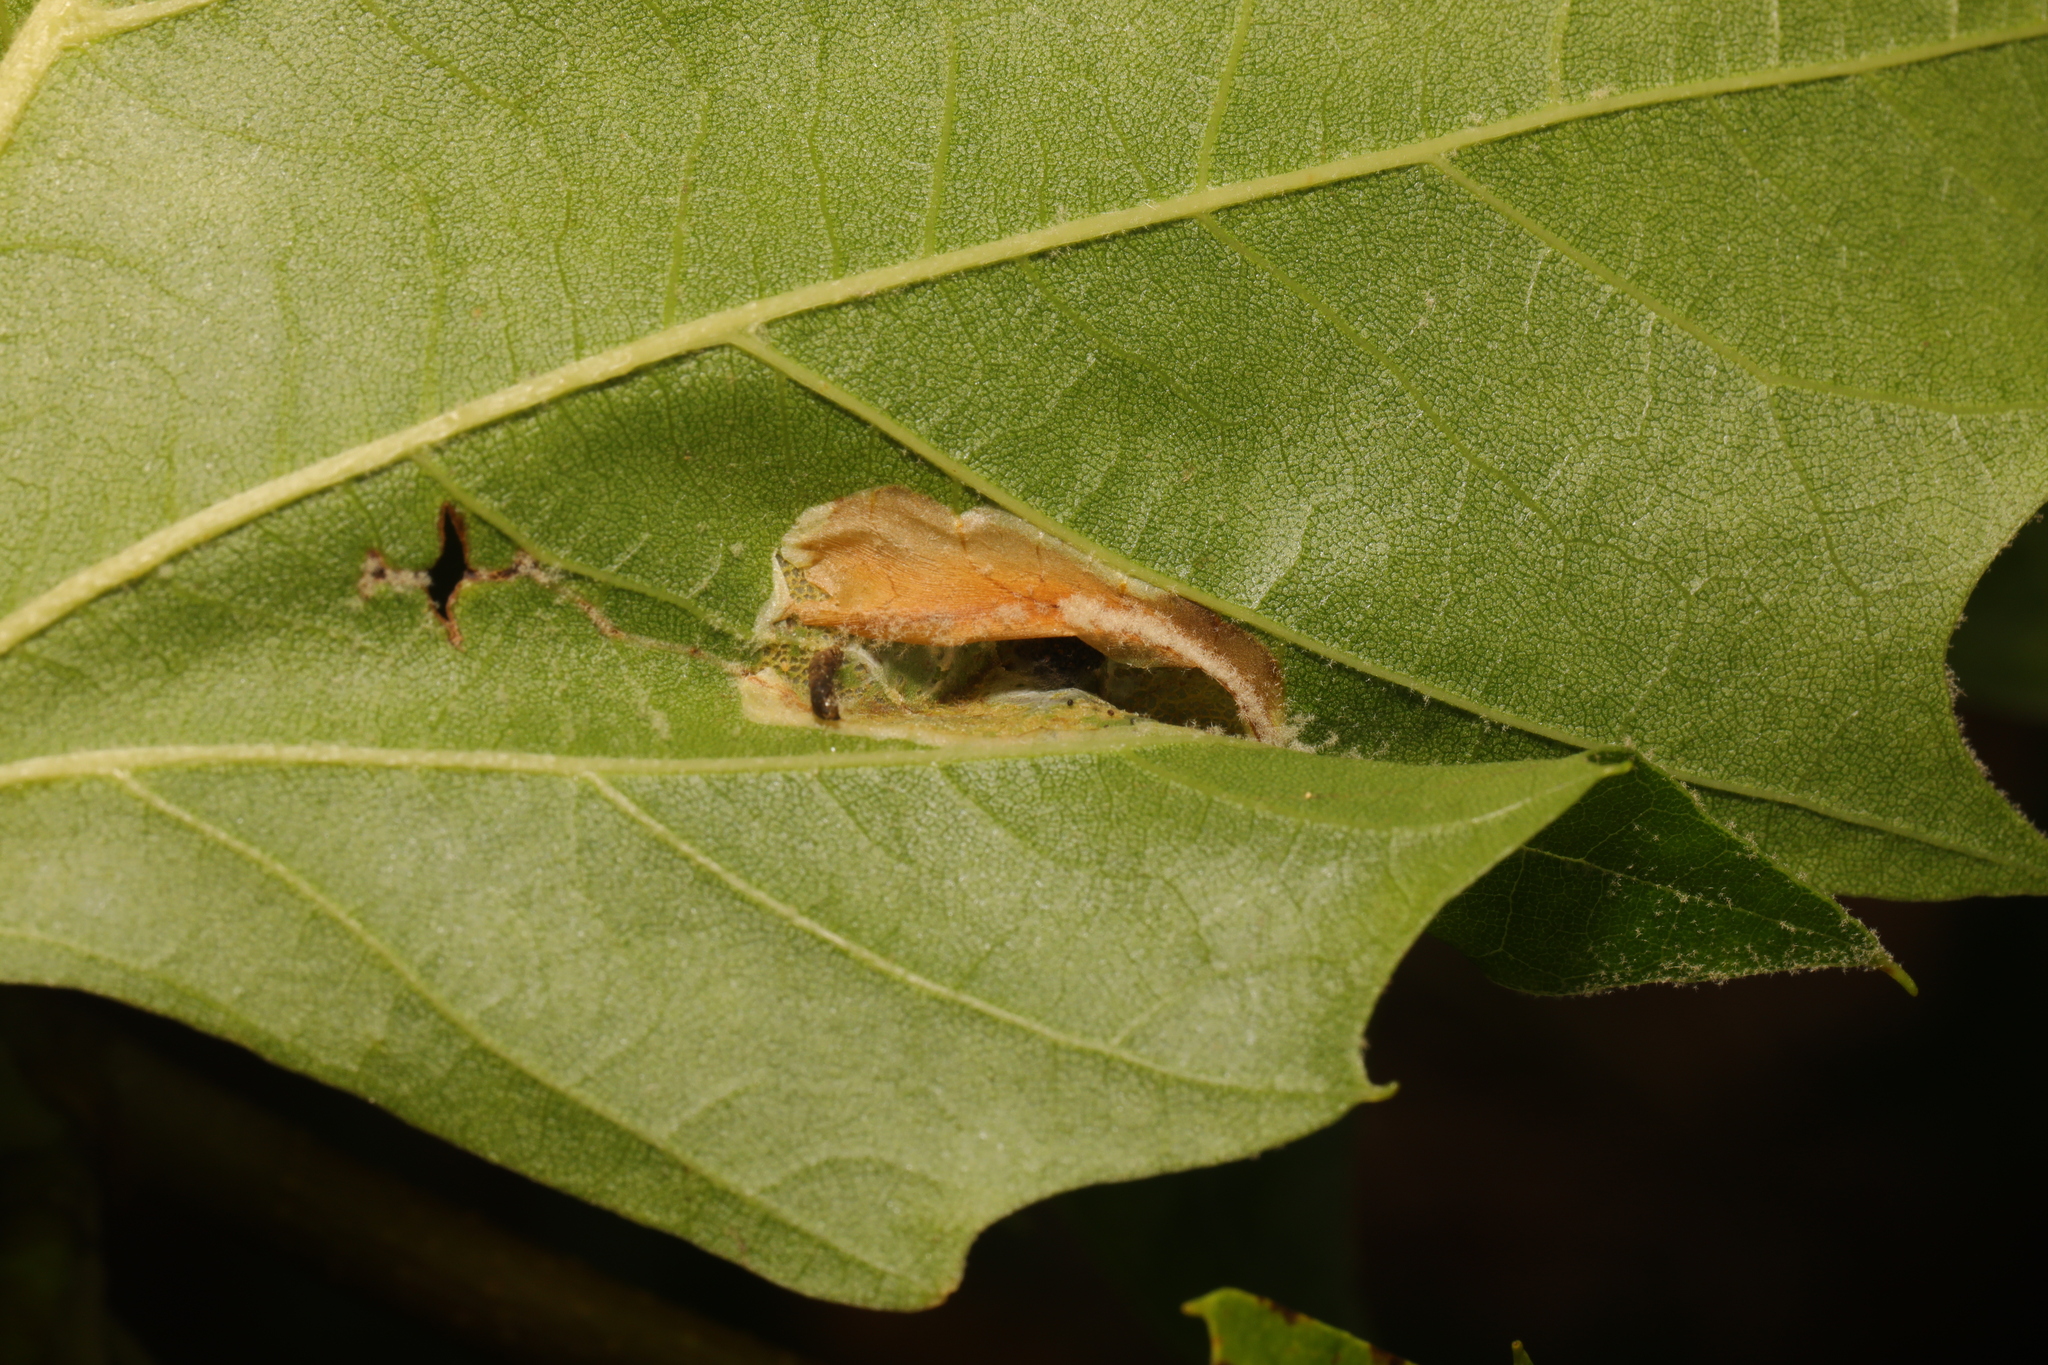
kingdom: Animalia
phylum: Arthropoda
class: Insecta
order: Lepidoptera
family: Gracillariidae
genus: Phyllonorycter
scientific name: Phyllonorycter platani
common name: London midget
